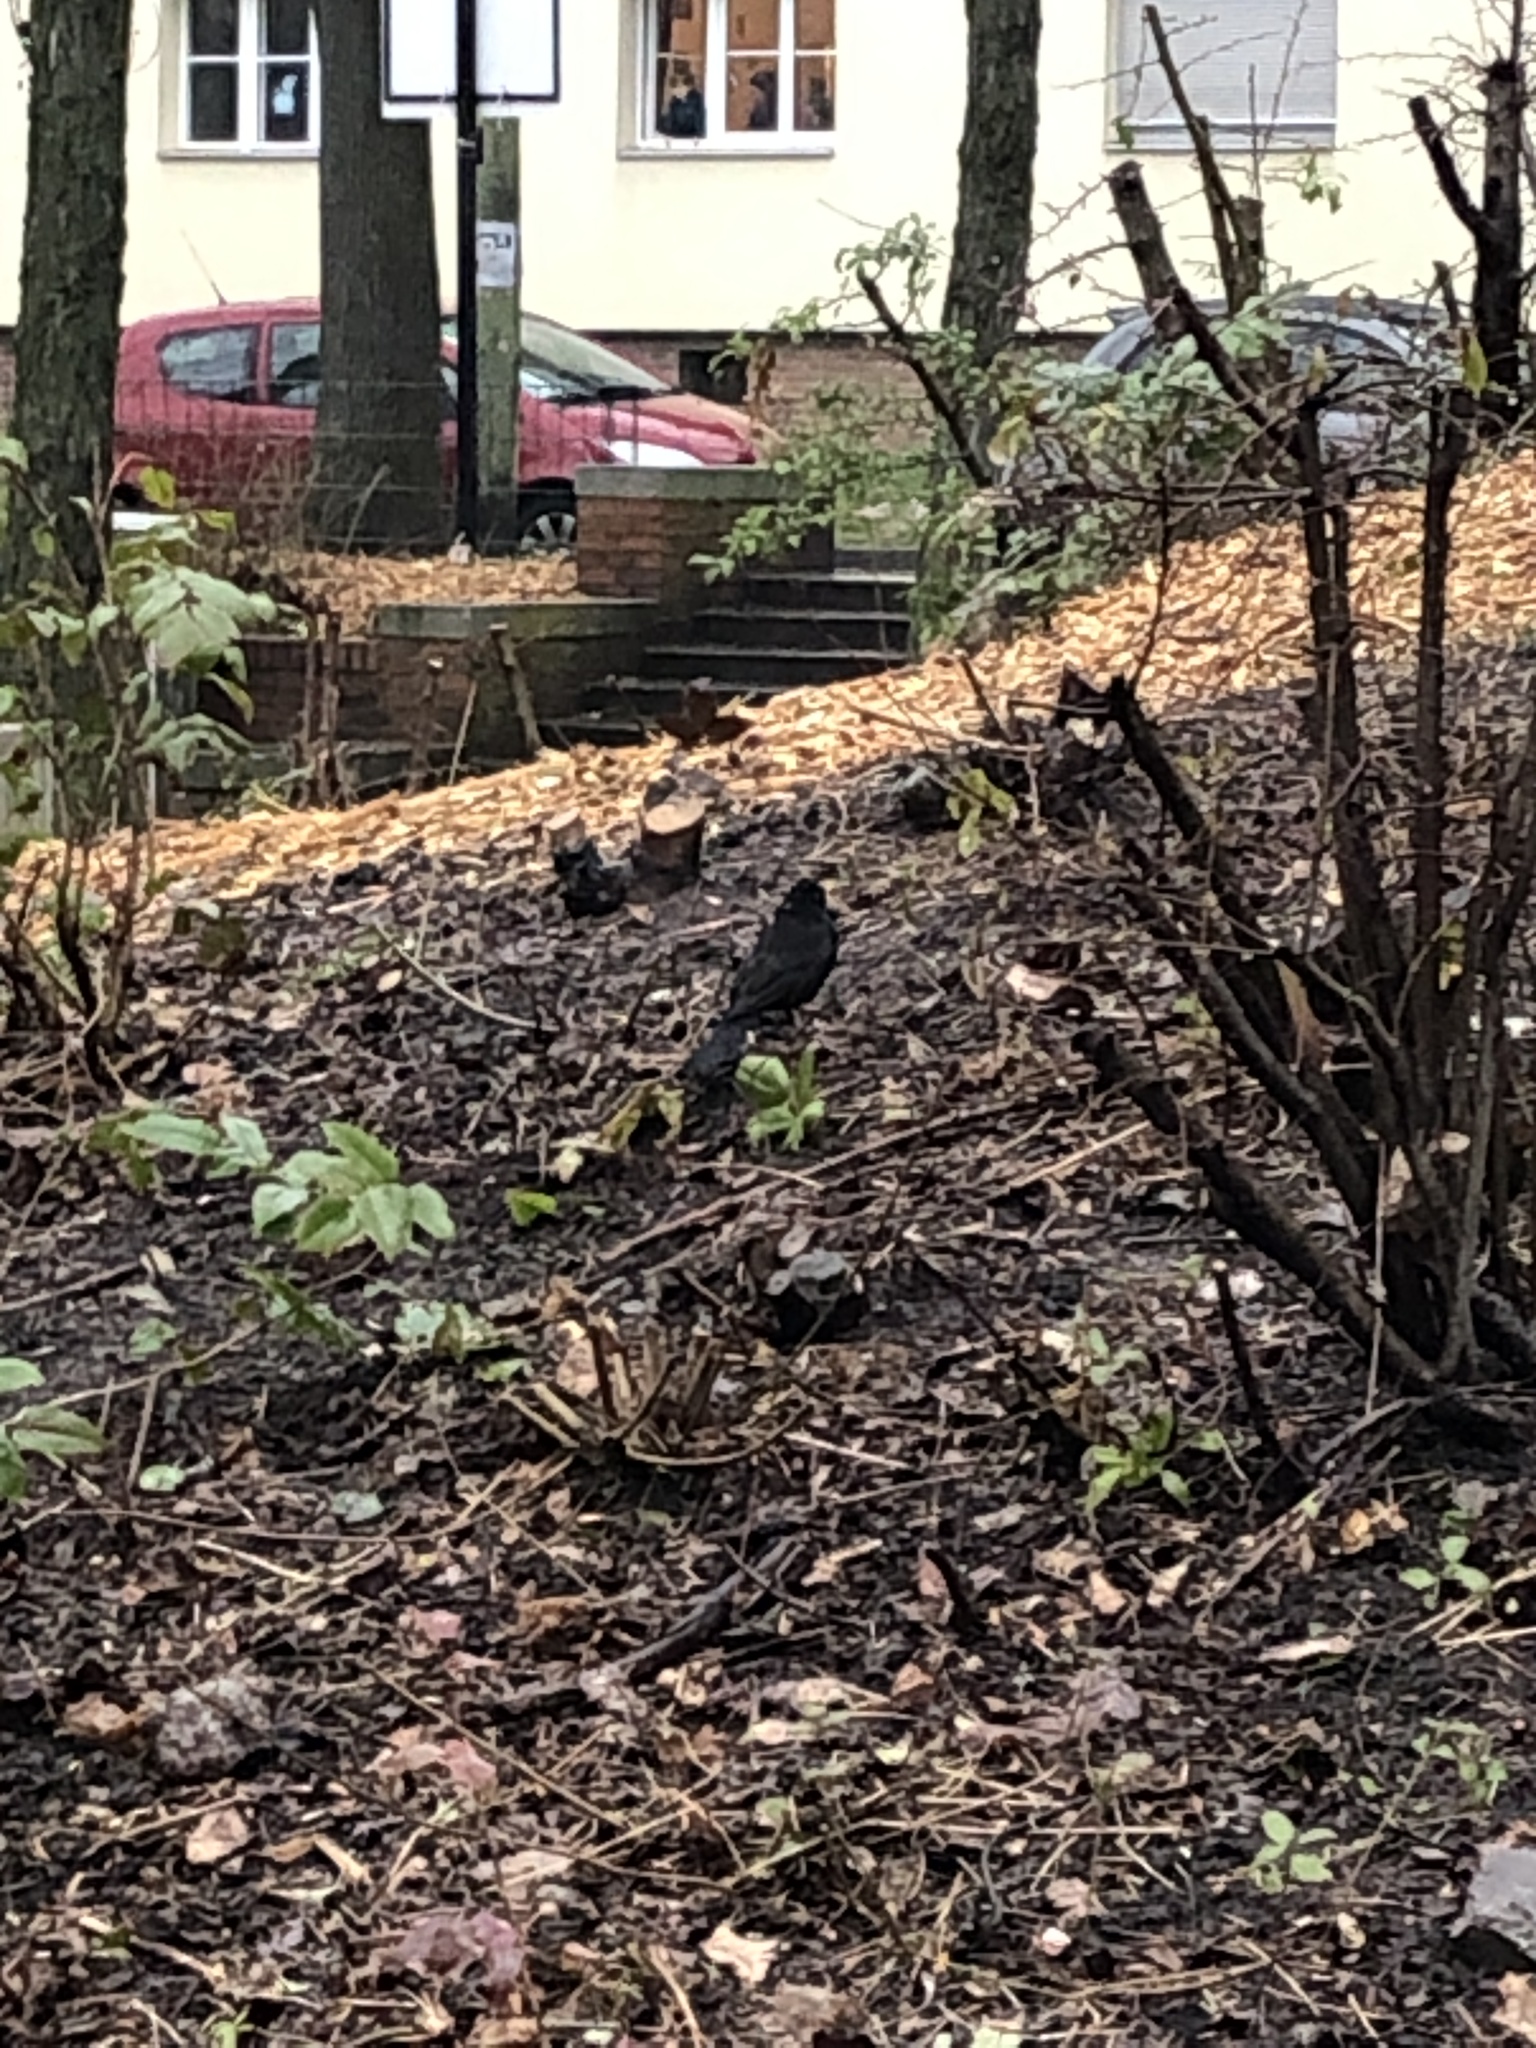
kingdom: Animalia
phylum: Chordata
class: Aves
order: Passeriformes
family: Turdidae
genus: Turdus
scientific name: Turdus merula
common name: Common blackbird
